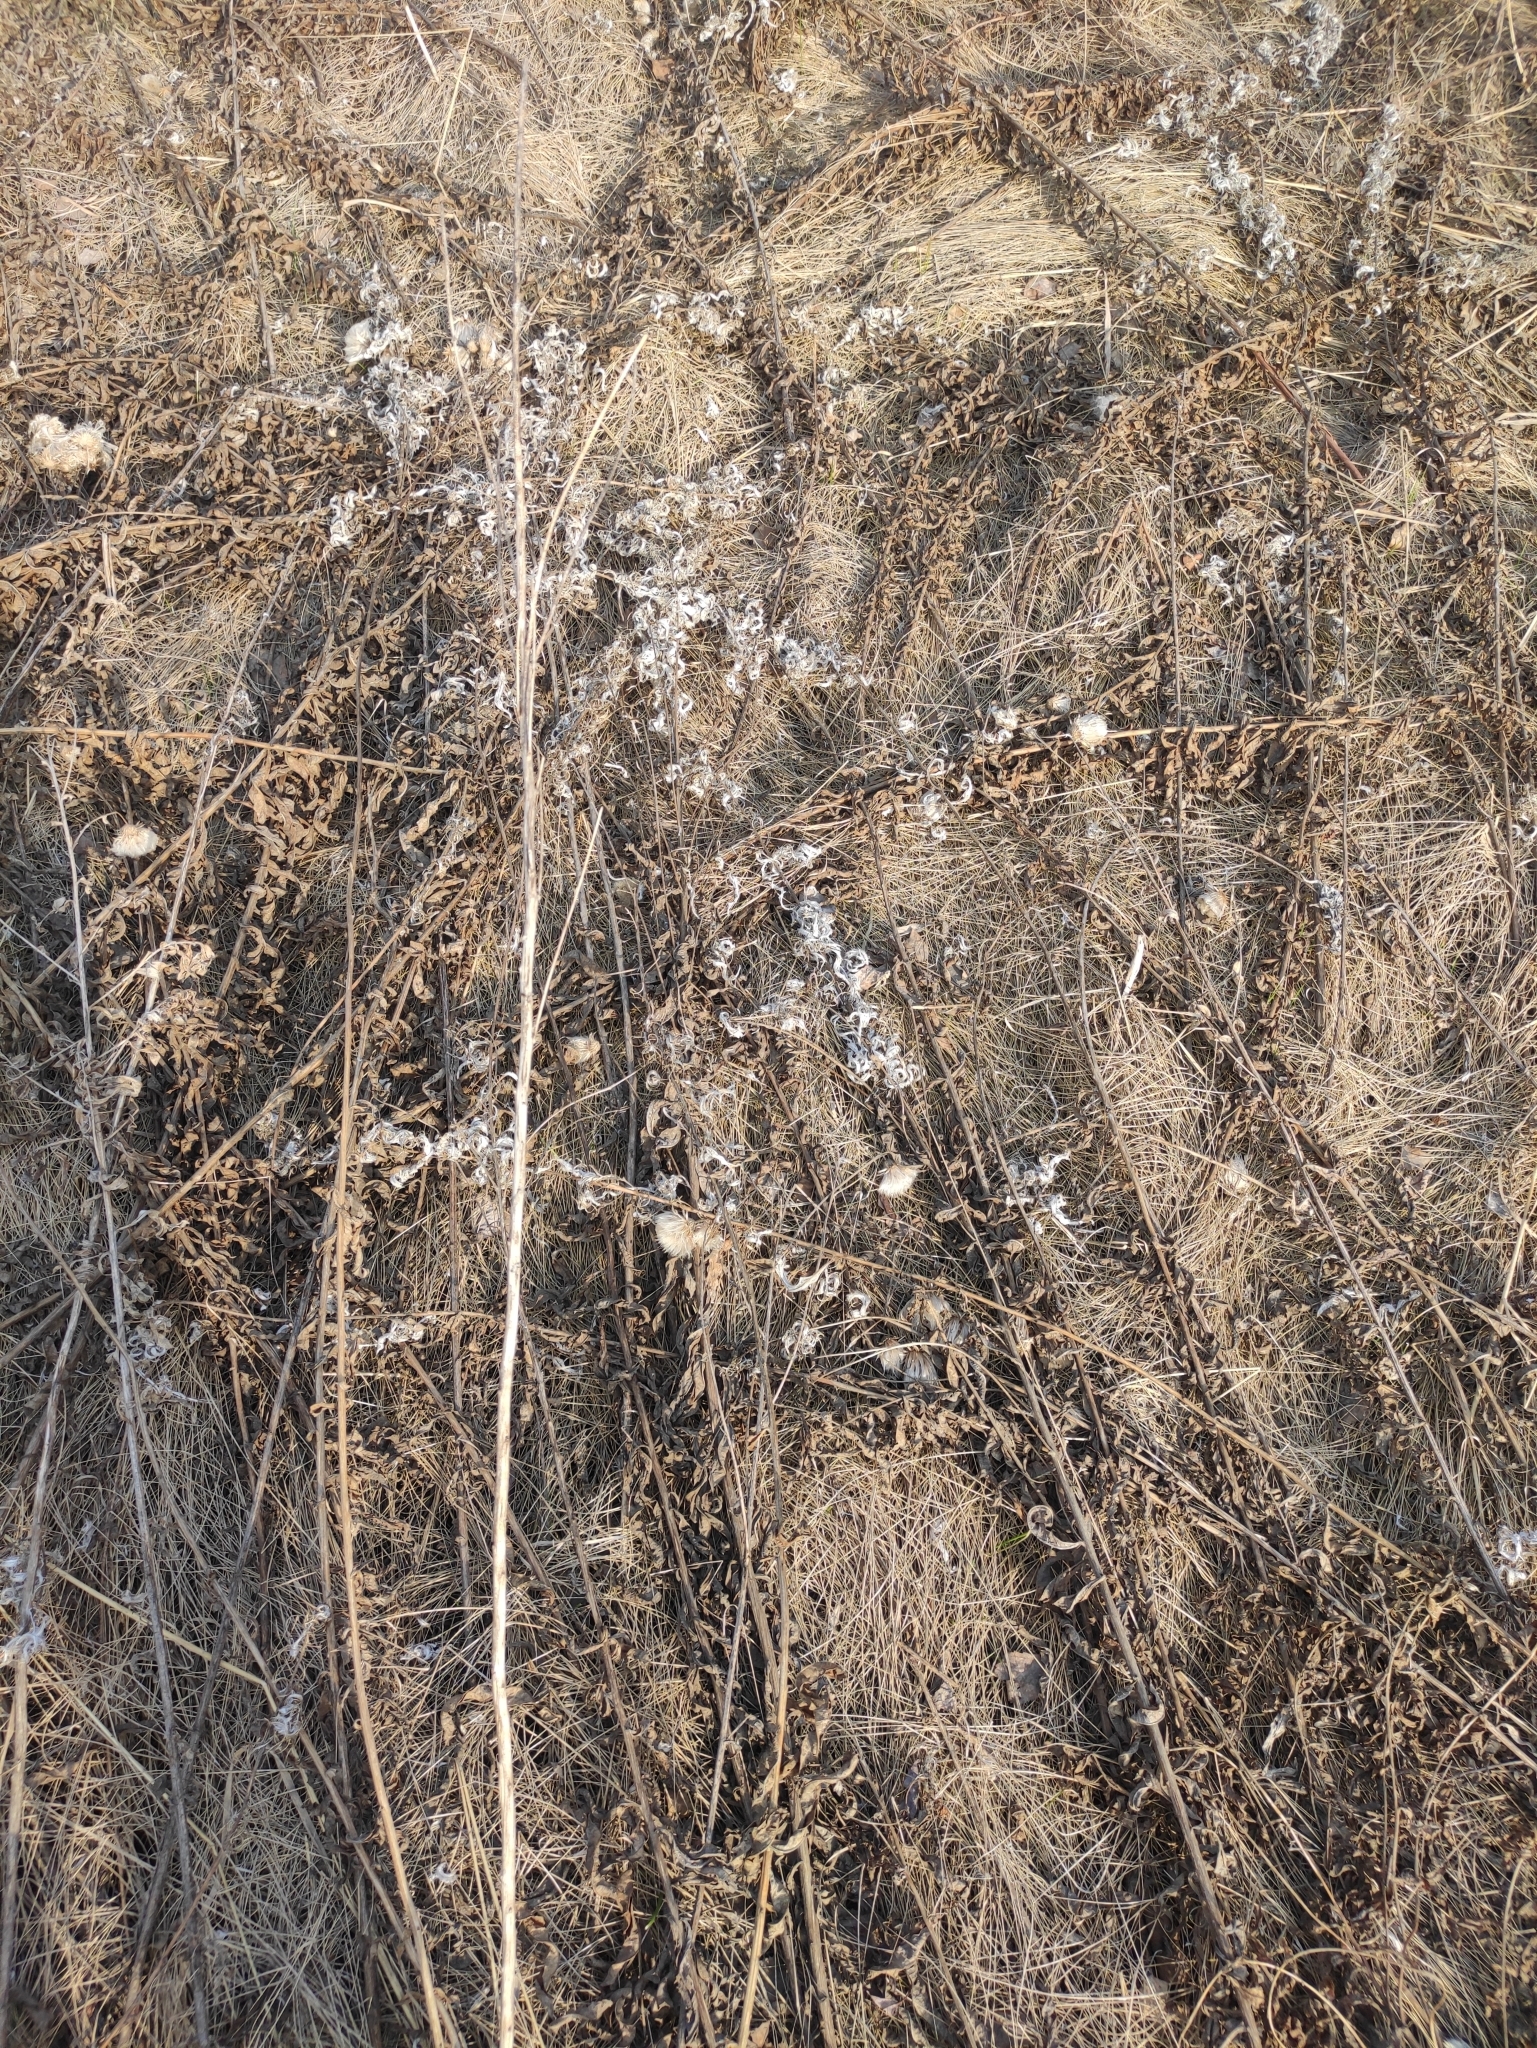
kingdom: Plantae
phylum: Tracheophyta
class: Magnoliopsida
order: Myrtales
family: Onagraceae
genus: Chamaenerion
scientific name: Chamaenerion angustifolium
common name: Fireweed
